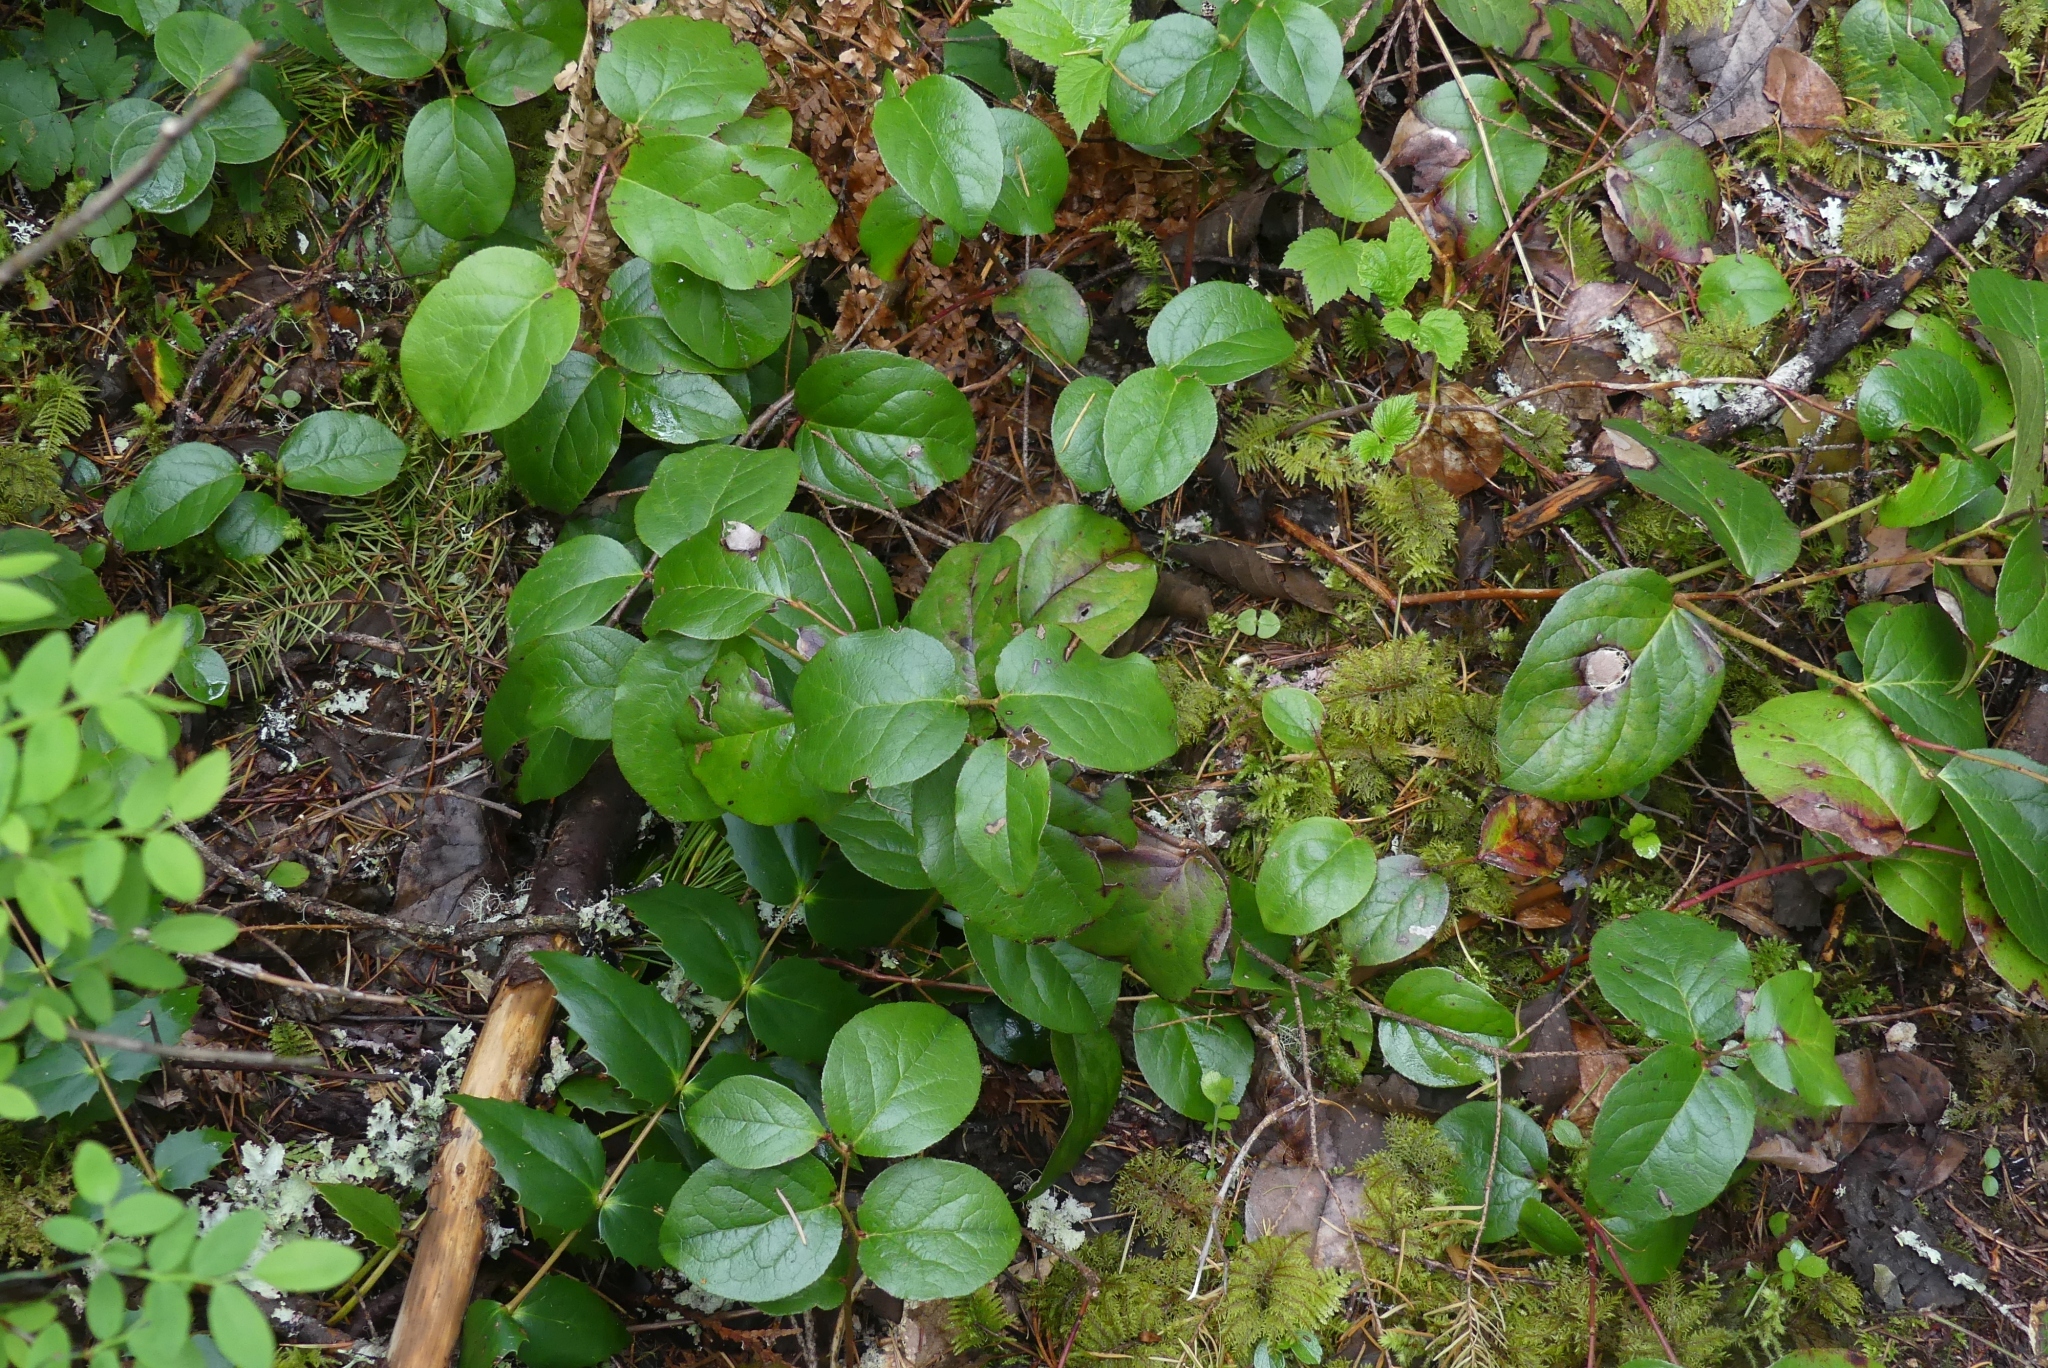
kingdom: Plantae
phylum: Tracheophyta
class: Magnoliopsida
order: Ericales
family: Ericaceae
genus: Gaultheria
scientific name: Gaultheria shallon
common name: Shallon
